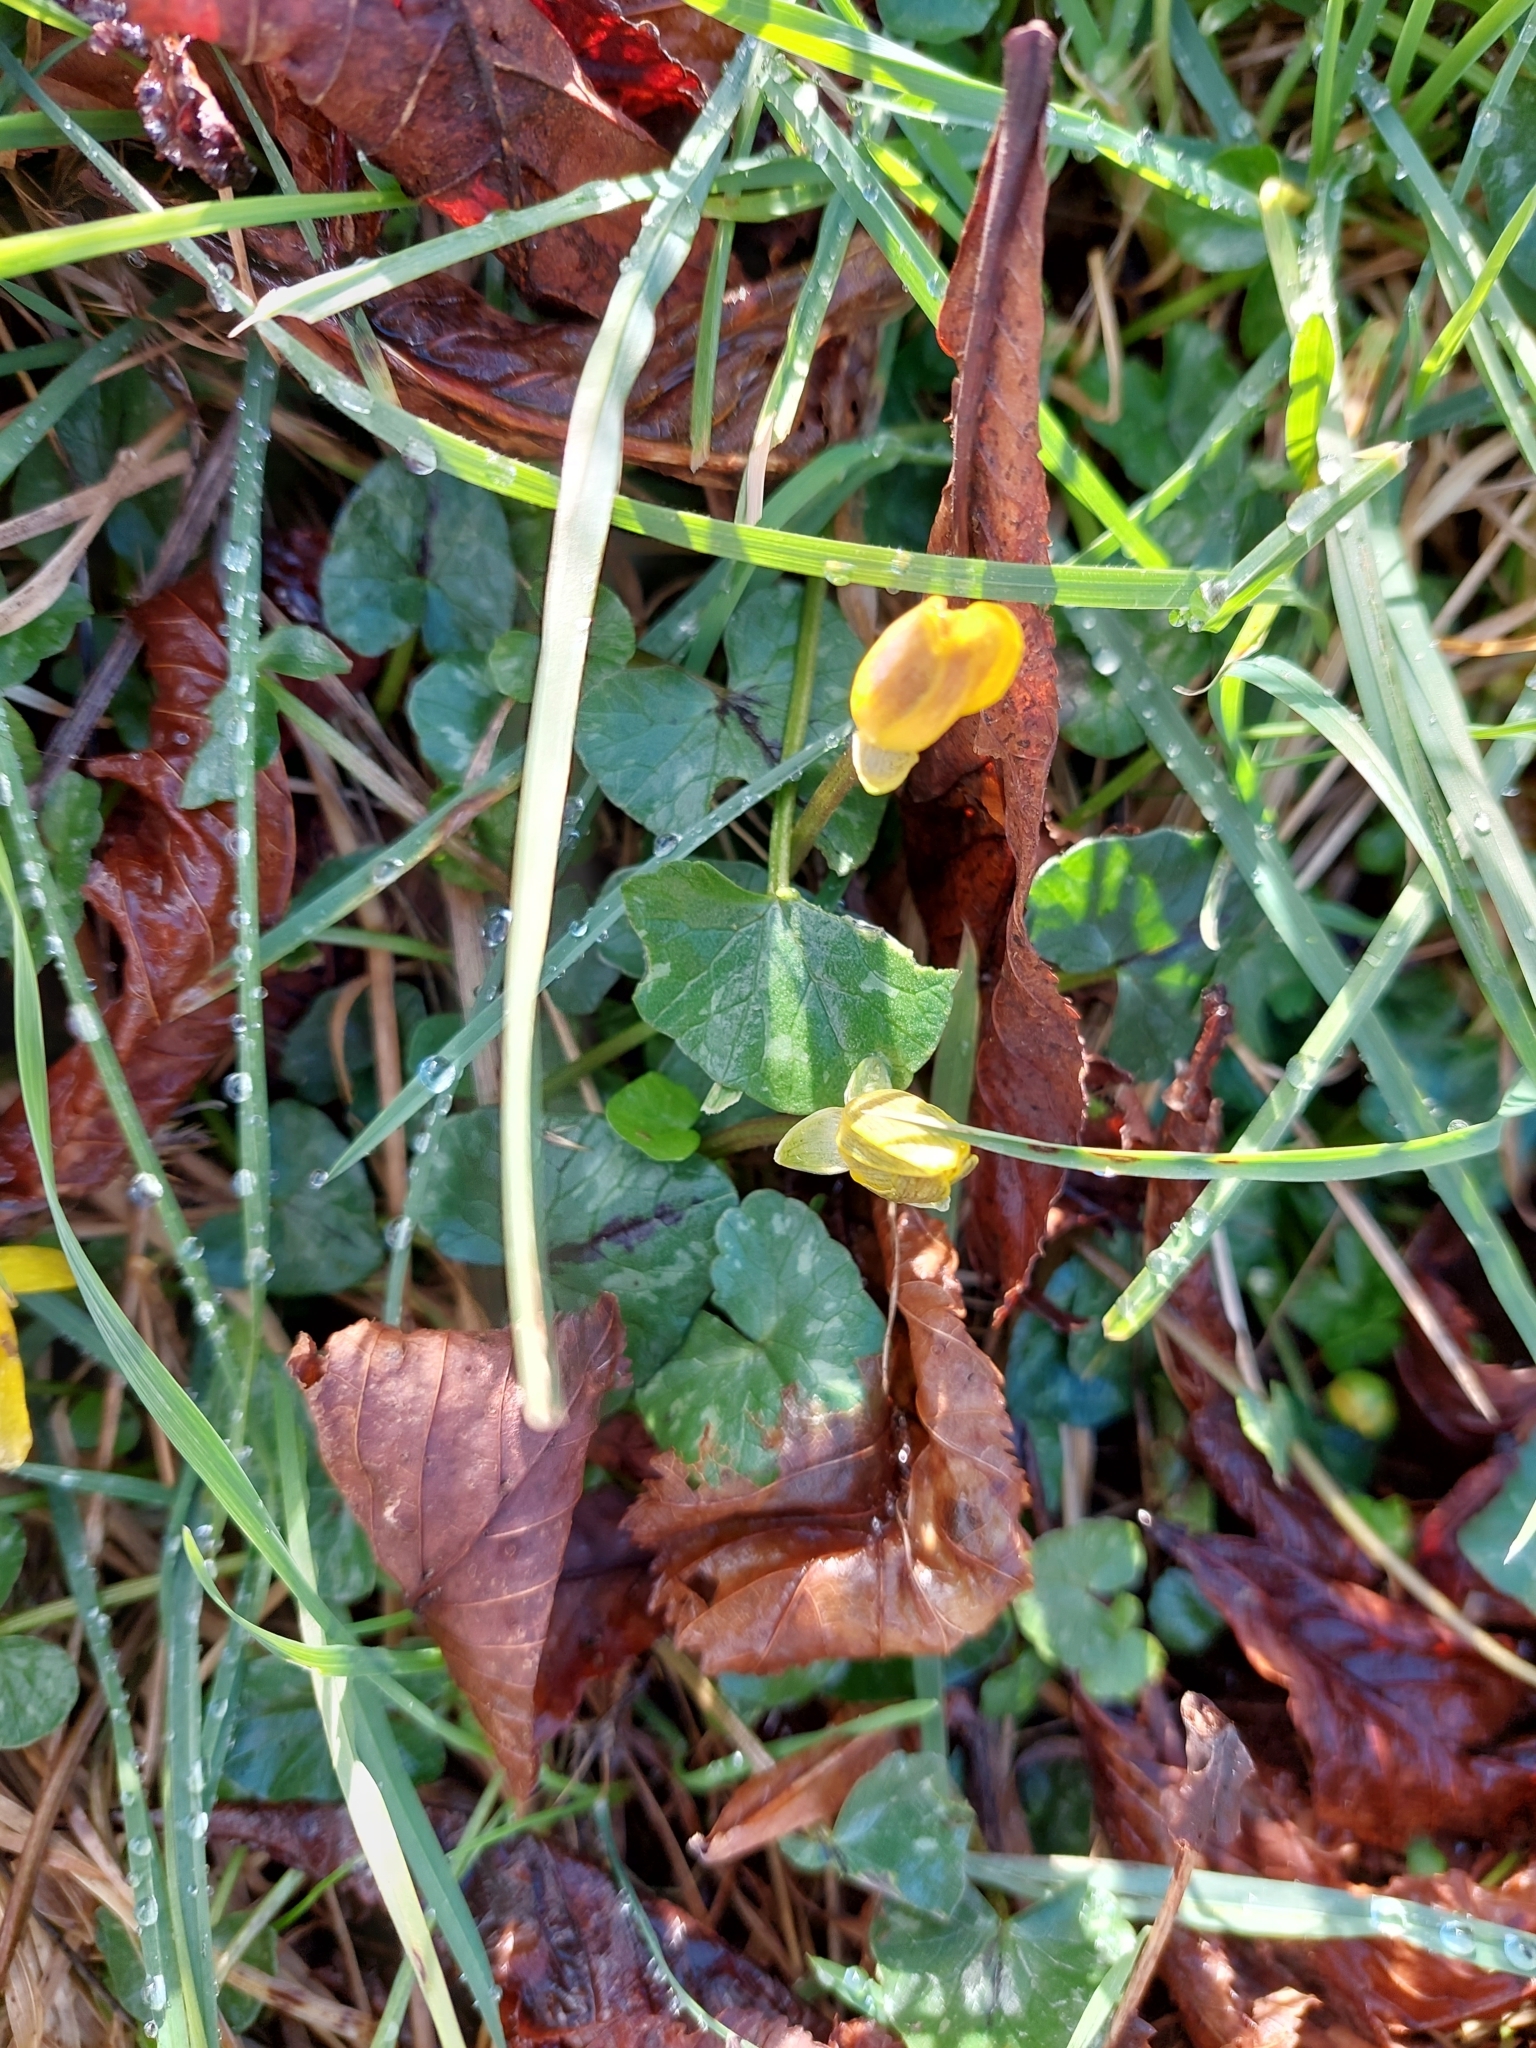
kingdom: Plantae
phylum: Tracheophyta
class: Magnoliopsida
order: Ranunculales
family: Ranunculaceae
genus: Ficaria
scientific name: Ficaria verna
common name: Lesser celandine
